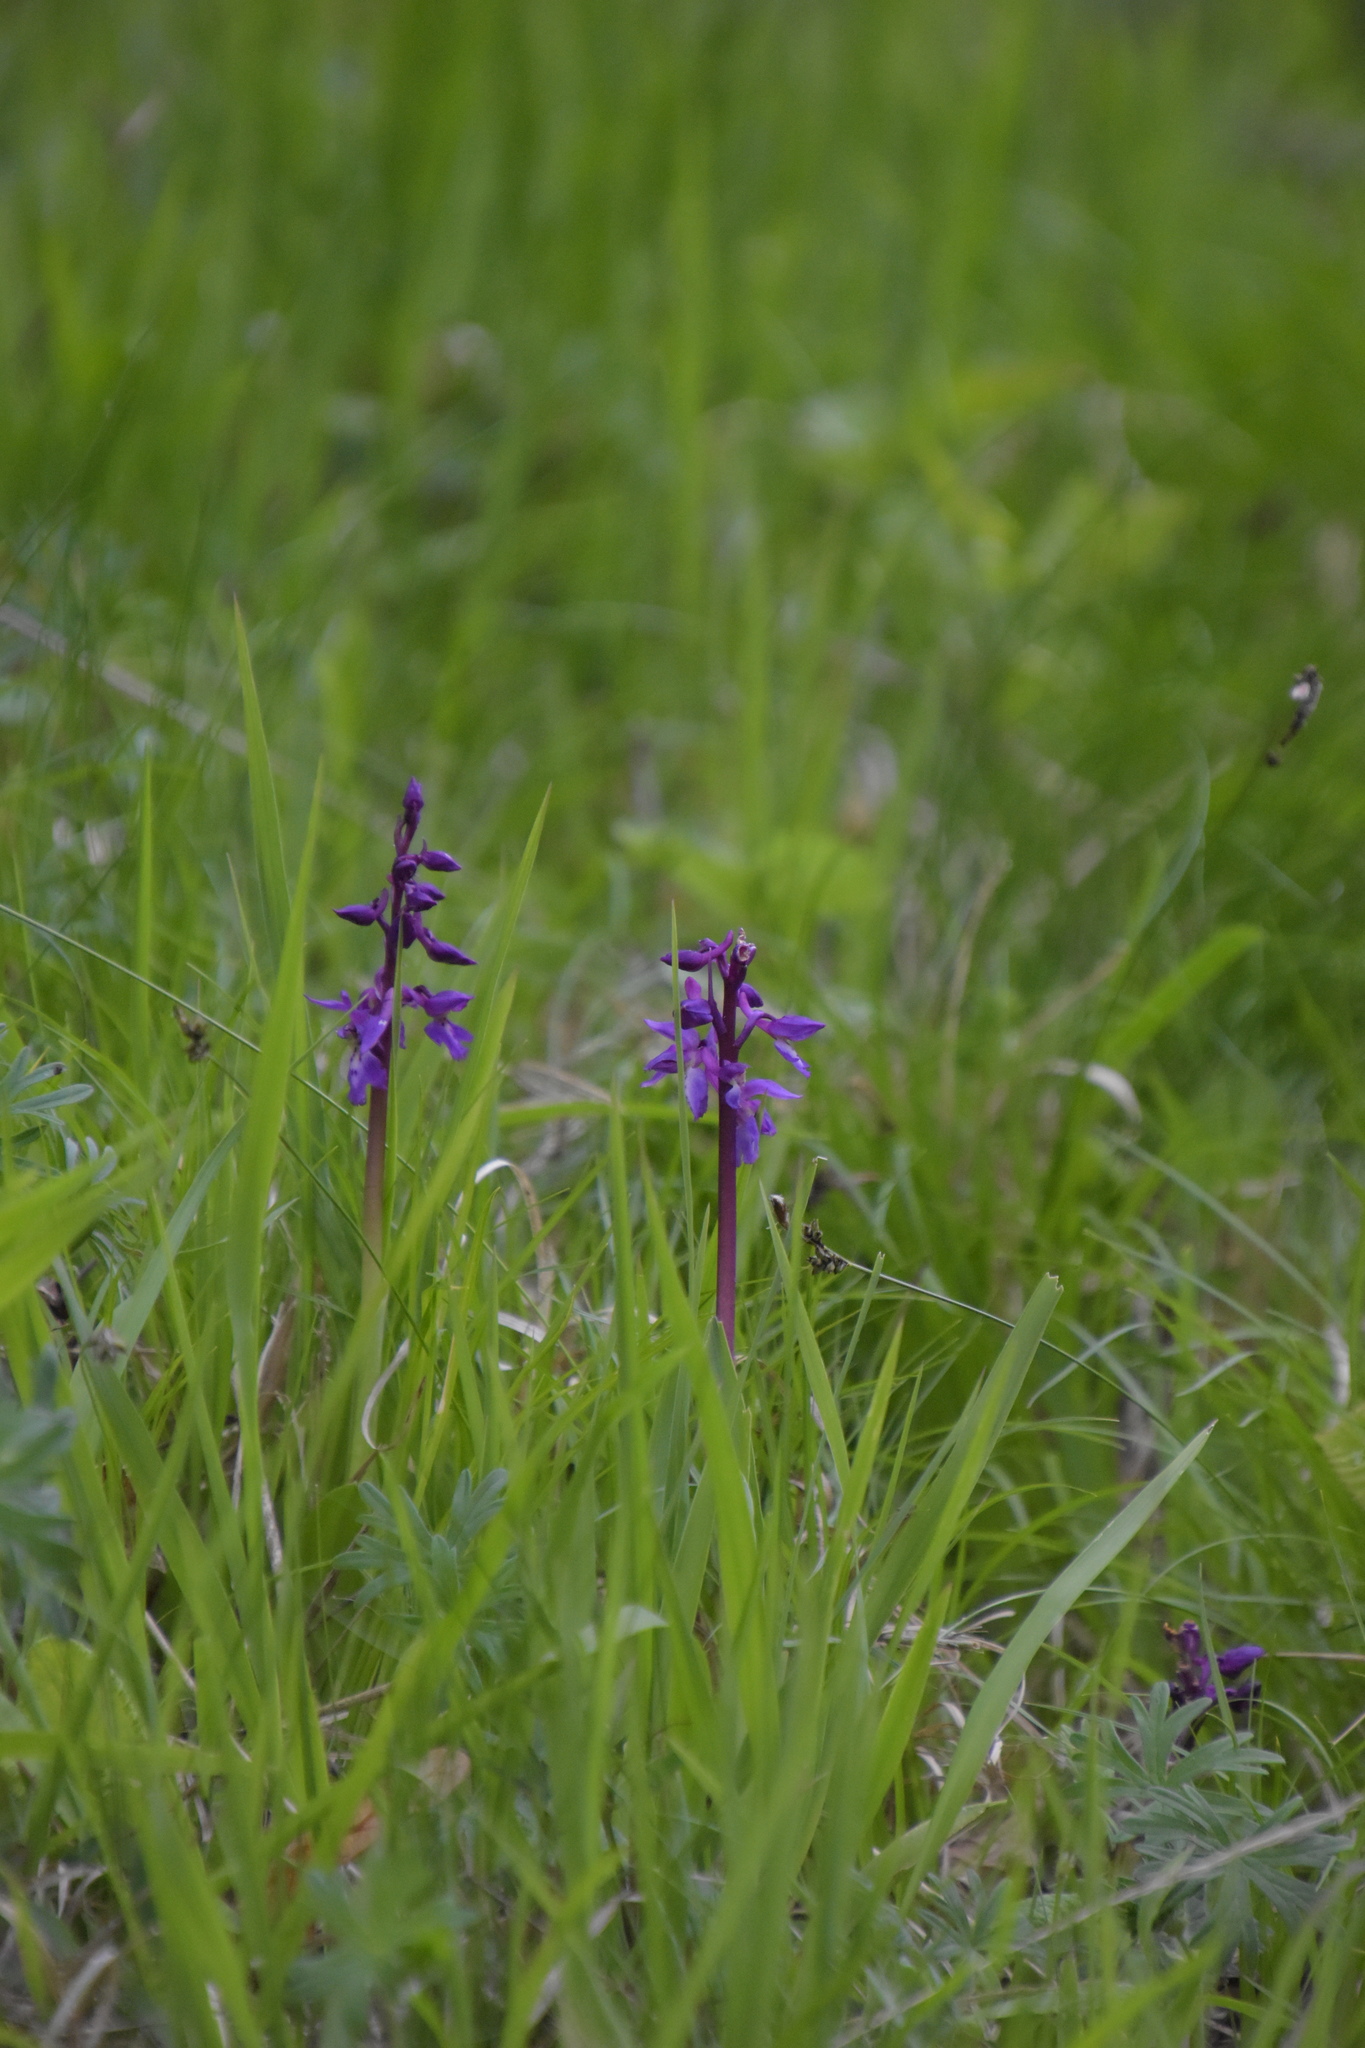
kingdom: Plantae
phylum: Tracheophyta
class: Liliopsida
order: Asparagales
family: Orchidaceae
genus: Orchis
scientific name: Orchis mascula
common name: Early-purple orchid
